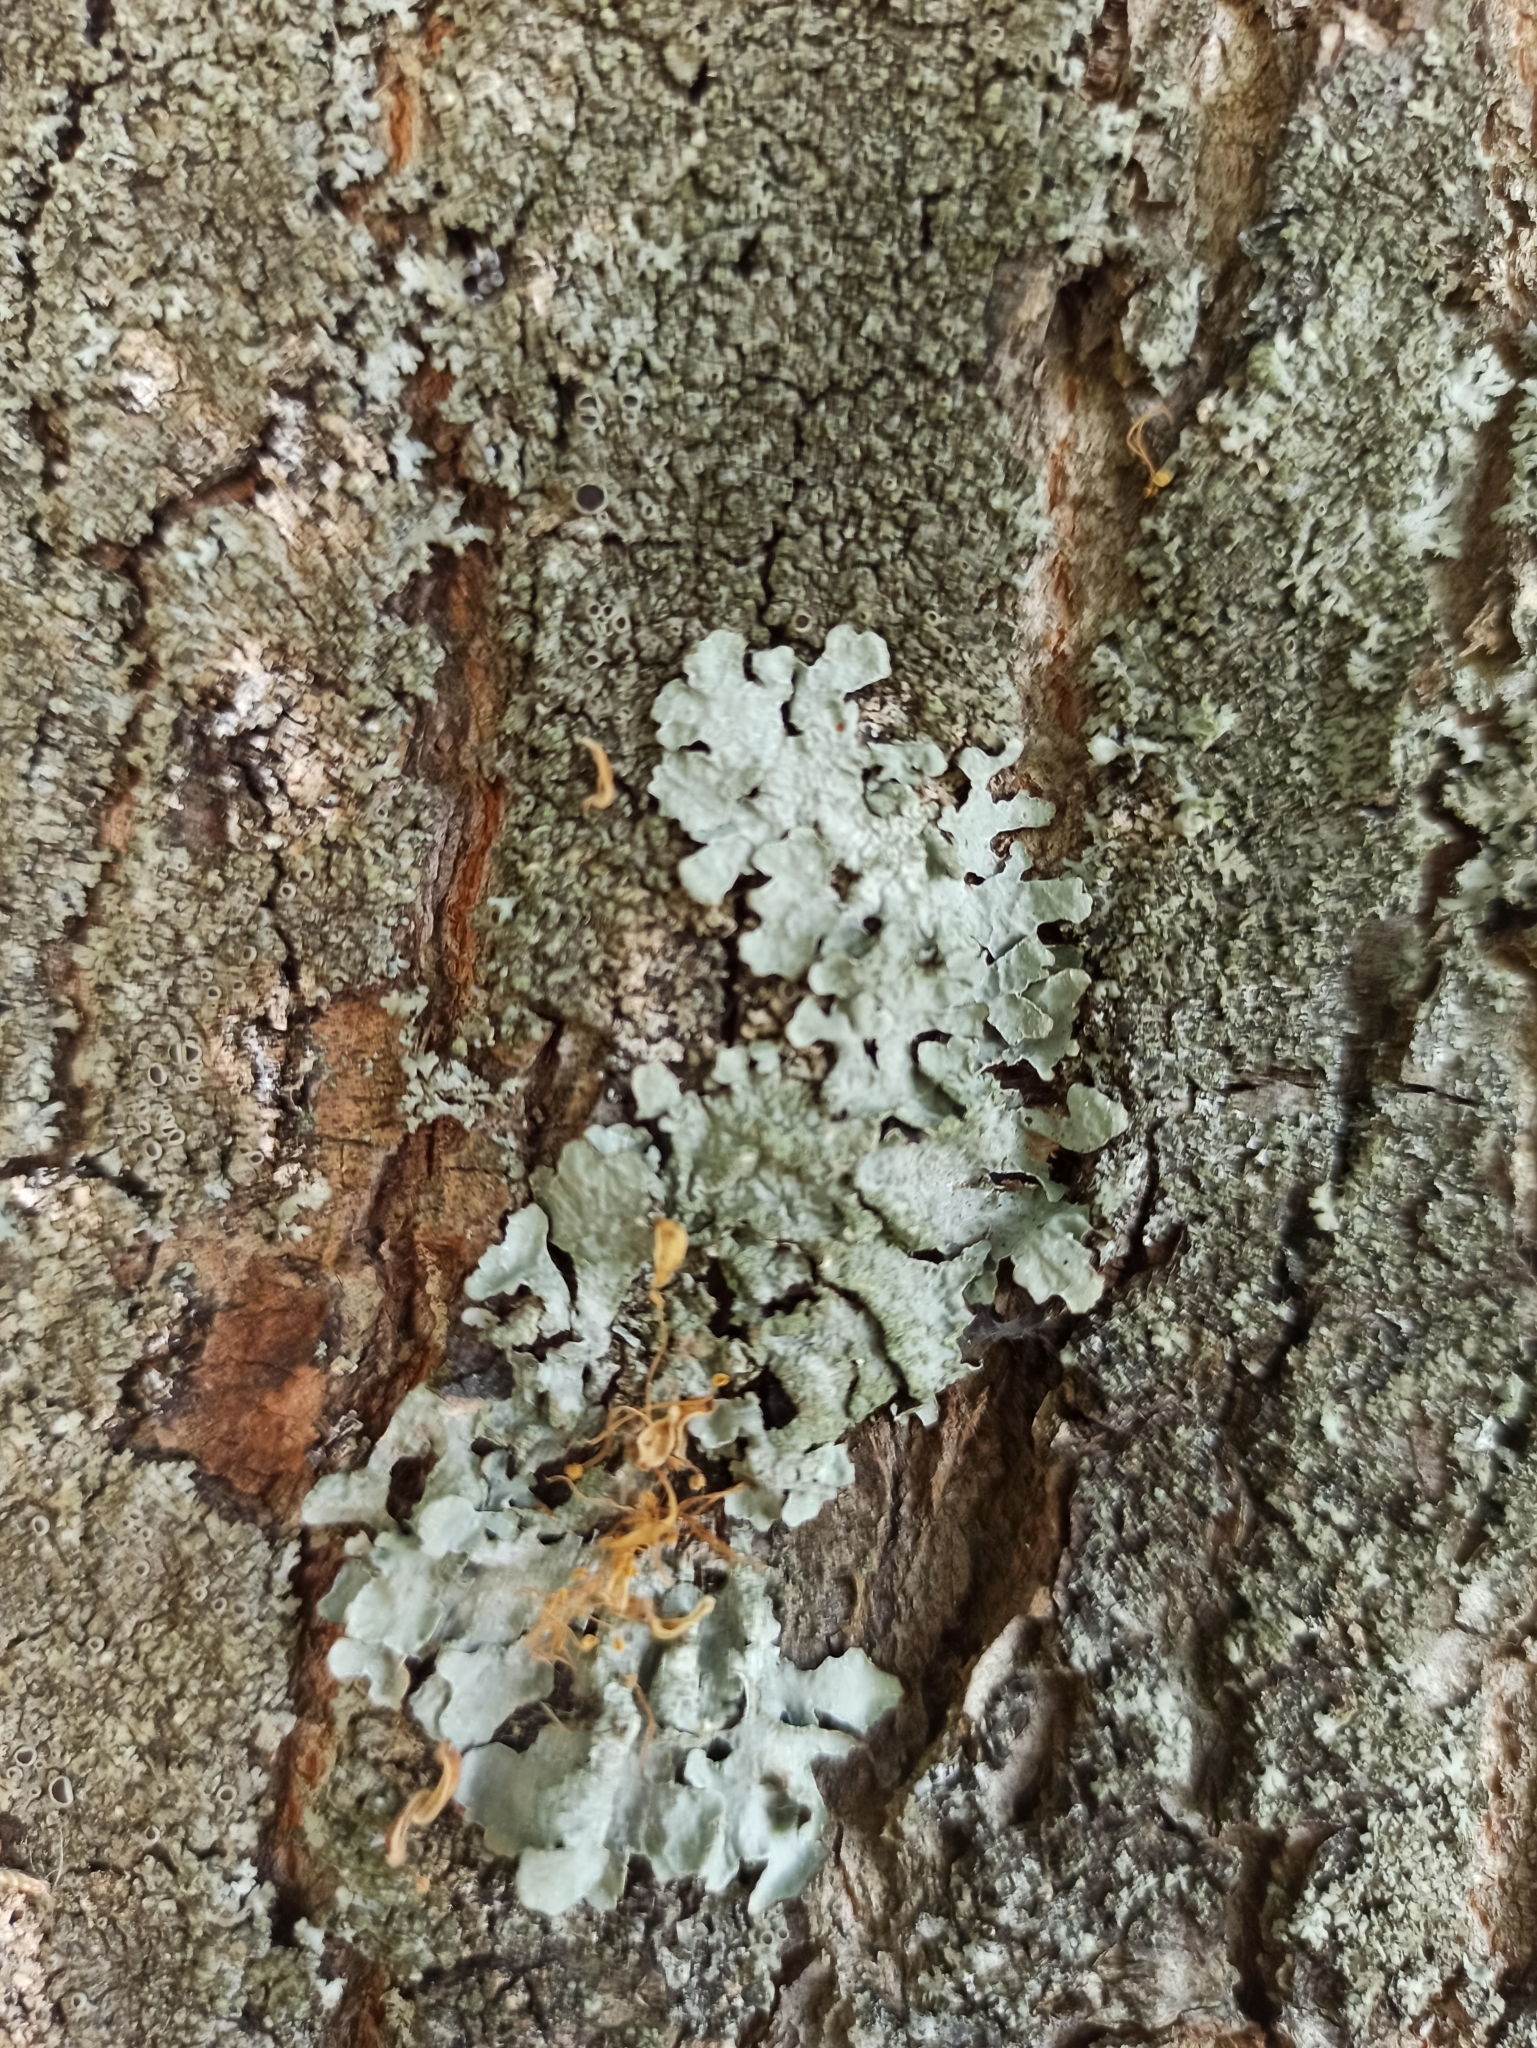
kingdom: Fungi
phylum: Ascomycota
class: Lecanoromycetes
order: Lecanorales
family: Parmeliaceae
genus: Parmelia
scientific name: Parmelia sulcata
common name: Netted shield lichen
